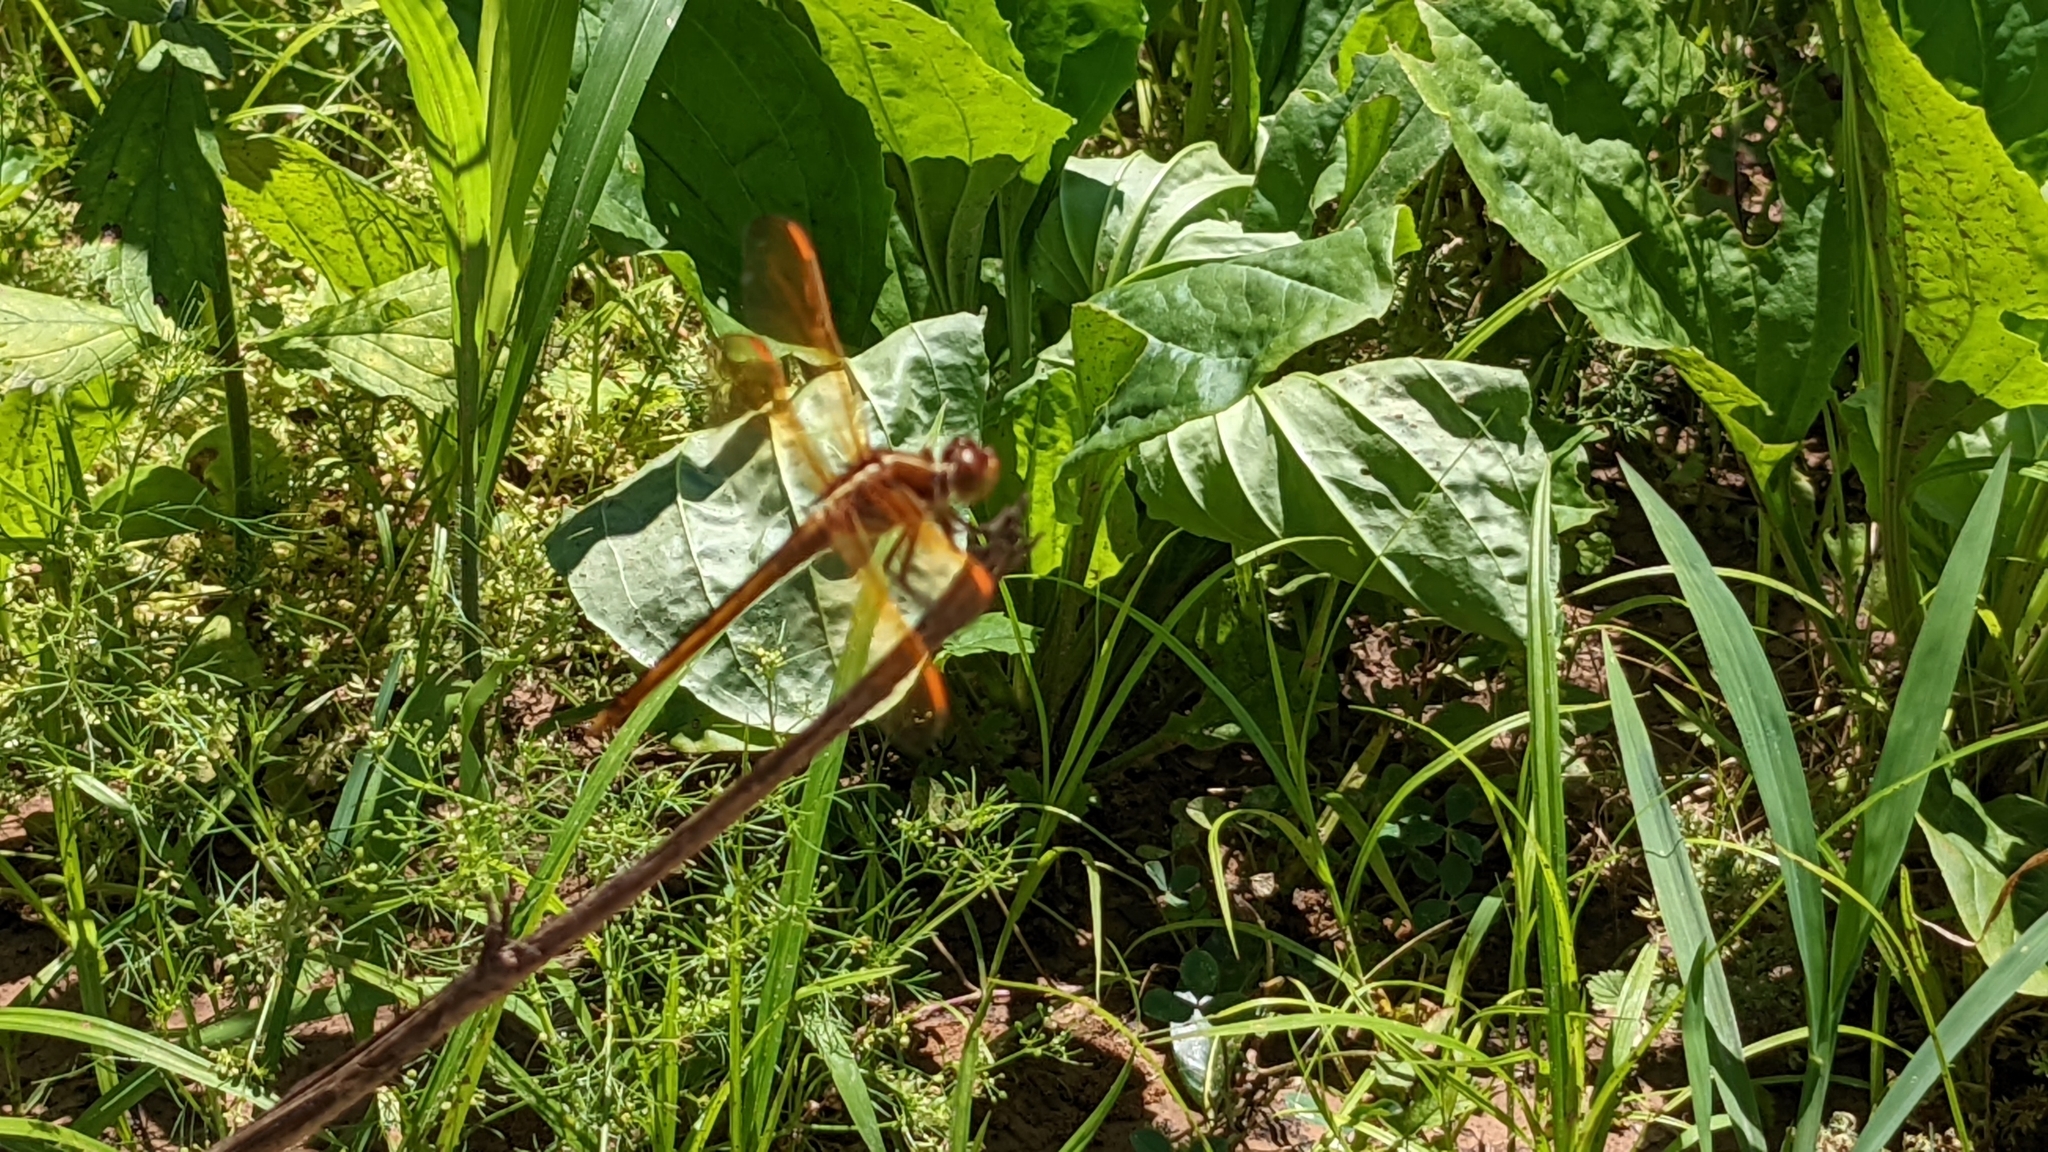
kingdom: Animalia
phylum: Arthropoda
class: Insecta
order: Odonata
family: Libellulidae
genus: Libellula
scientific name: Libellula auripennis
